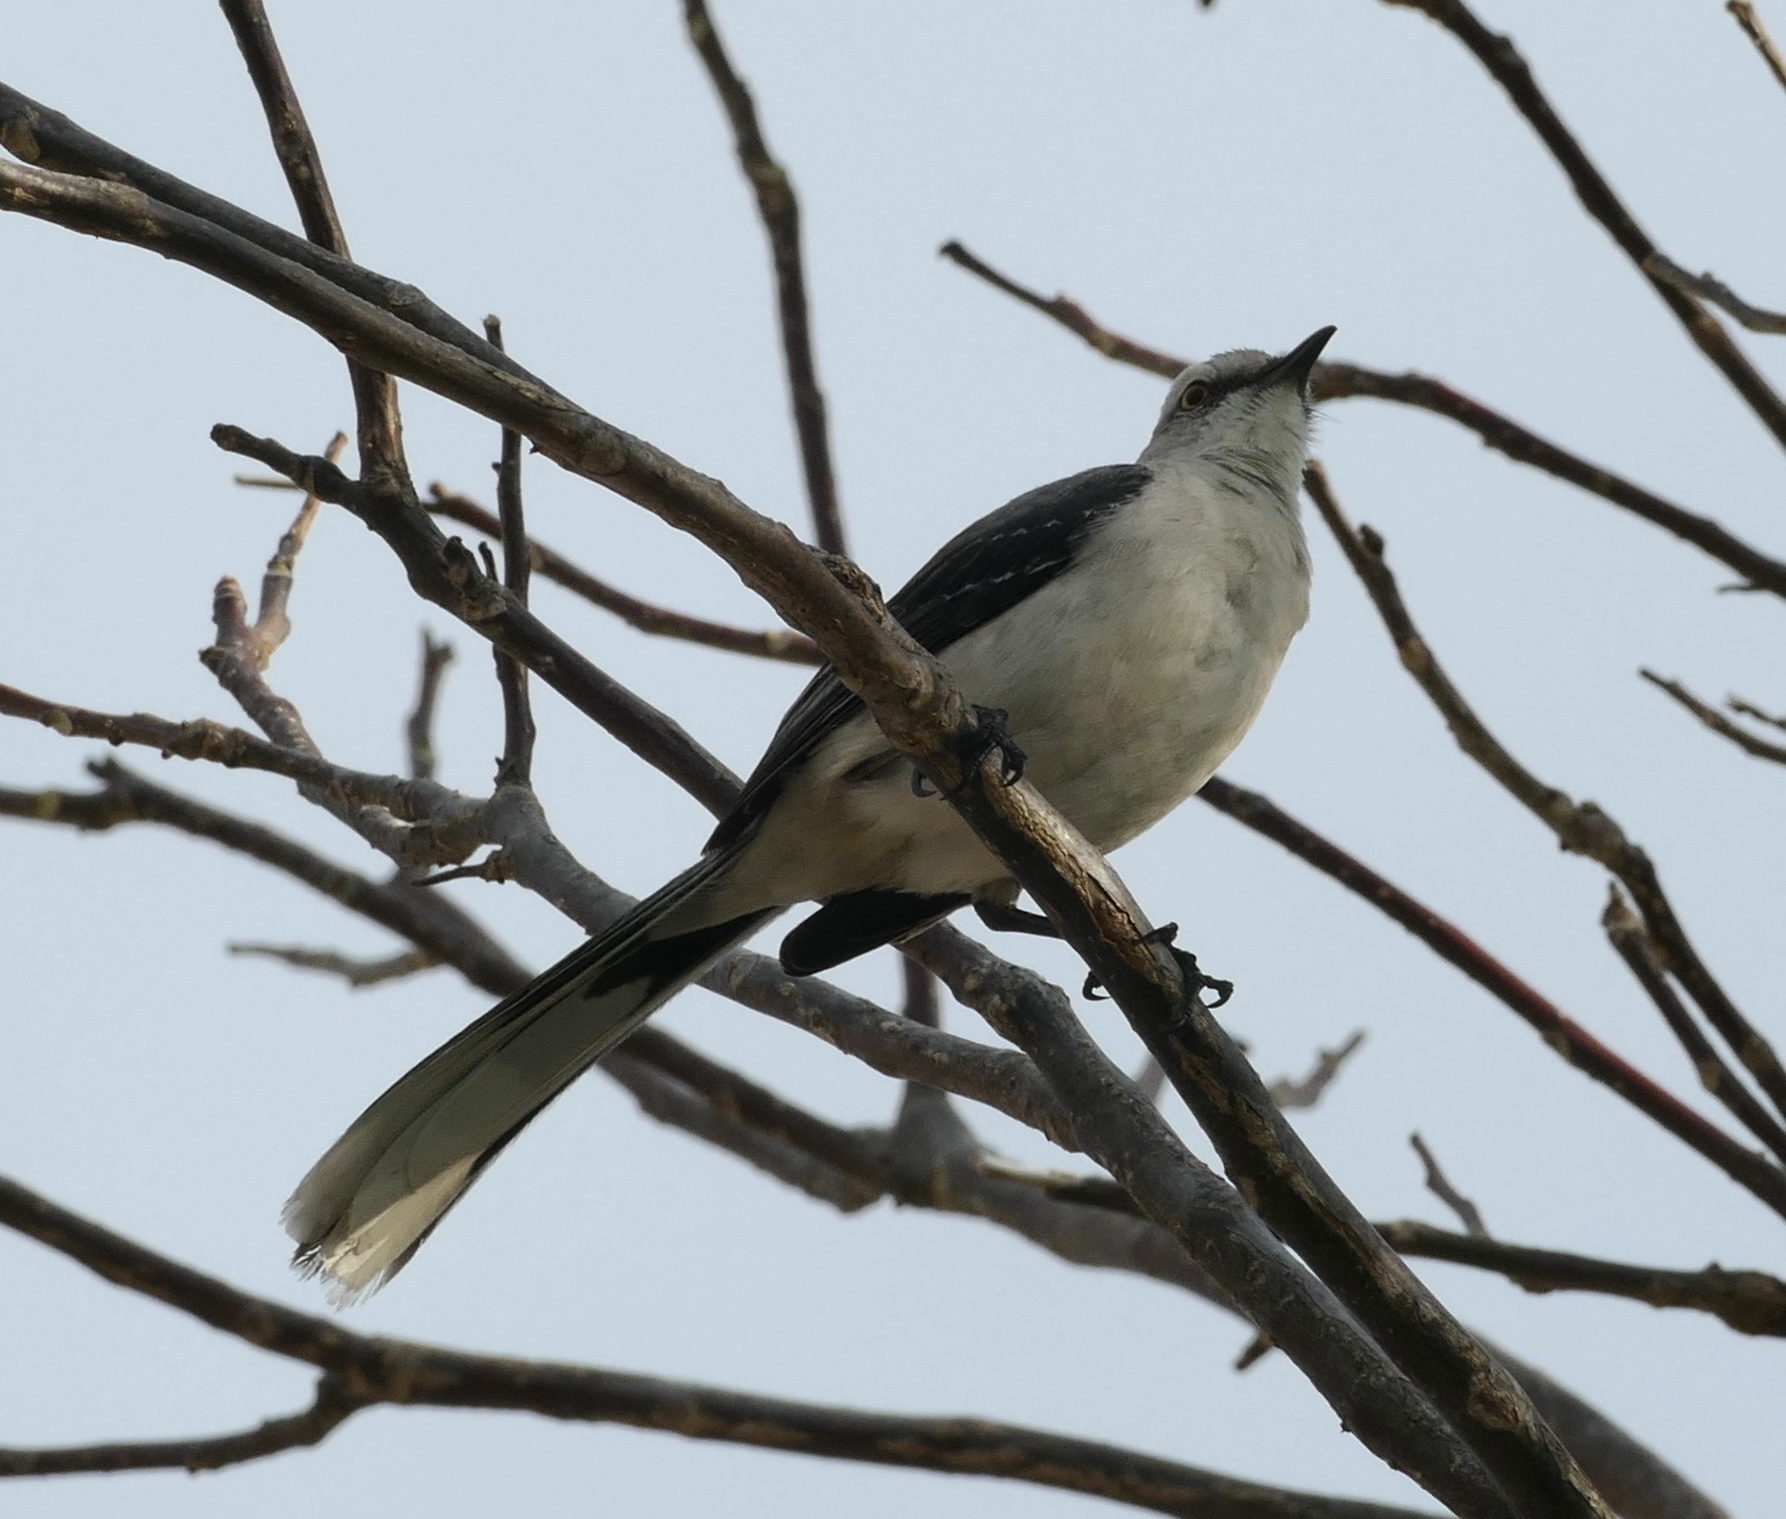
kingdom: Animalia
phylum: Chordata
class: Aves
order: Passeriformes
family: Mimidae
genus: Mimus
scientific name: Mimus gilvus
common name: Tropical mockingbird
